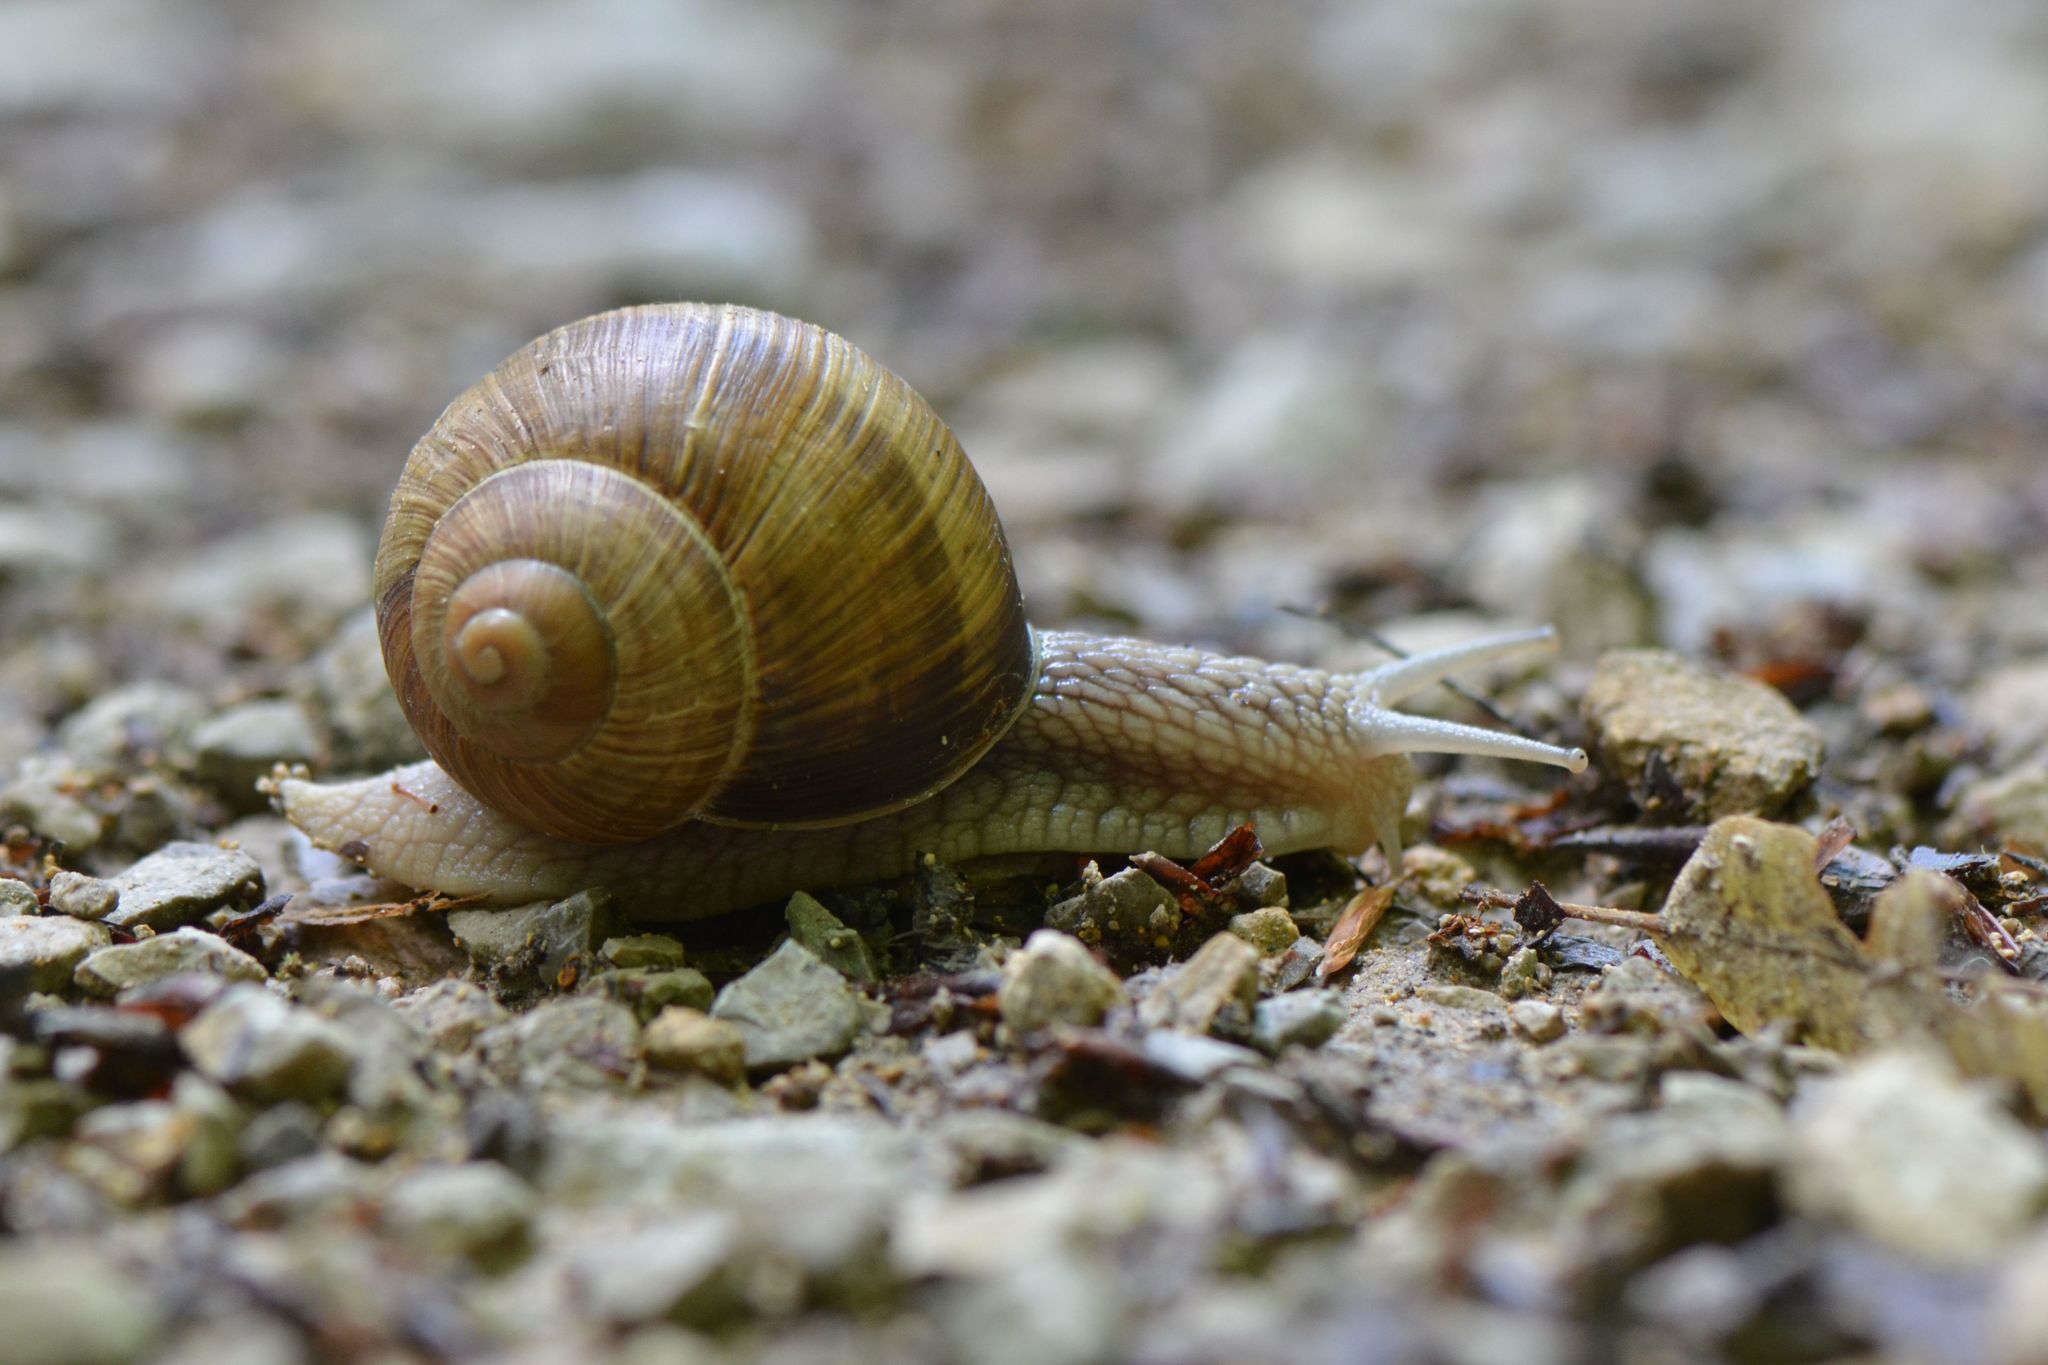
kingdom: Animalia
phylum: Mollusca
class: Gastropoda
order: Stylommatophora
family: Helicidae
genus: Helix
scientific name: Helix pomatia
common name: Roman snail
